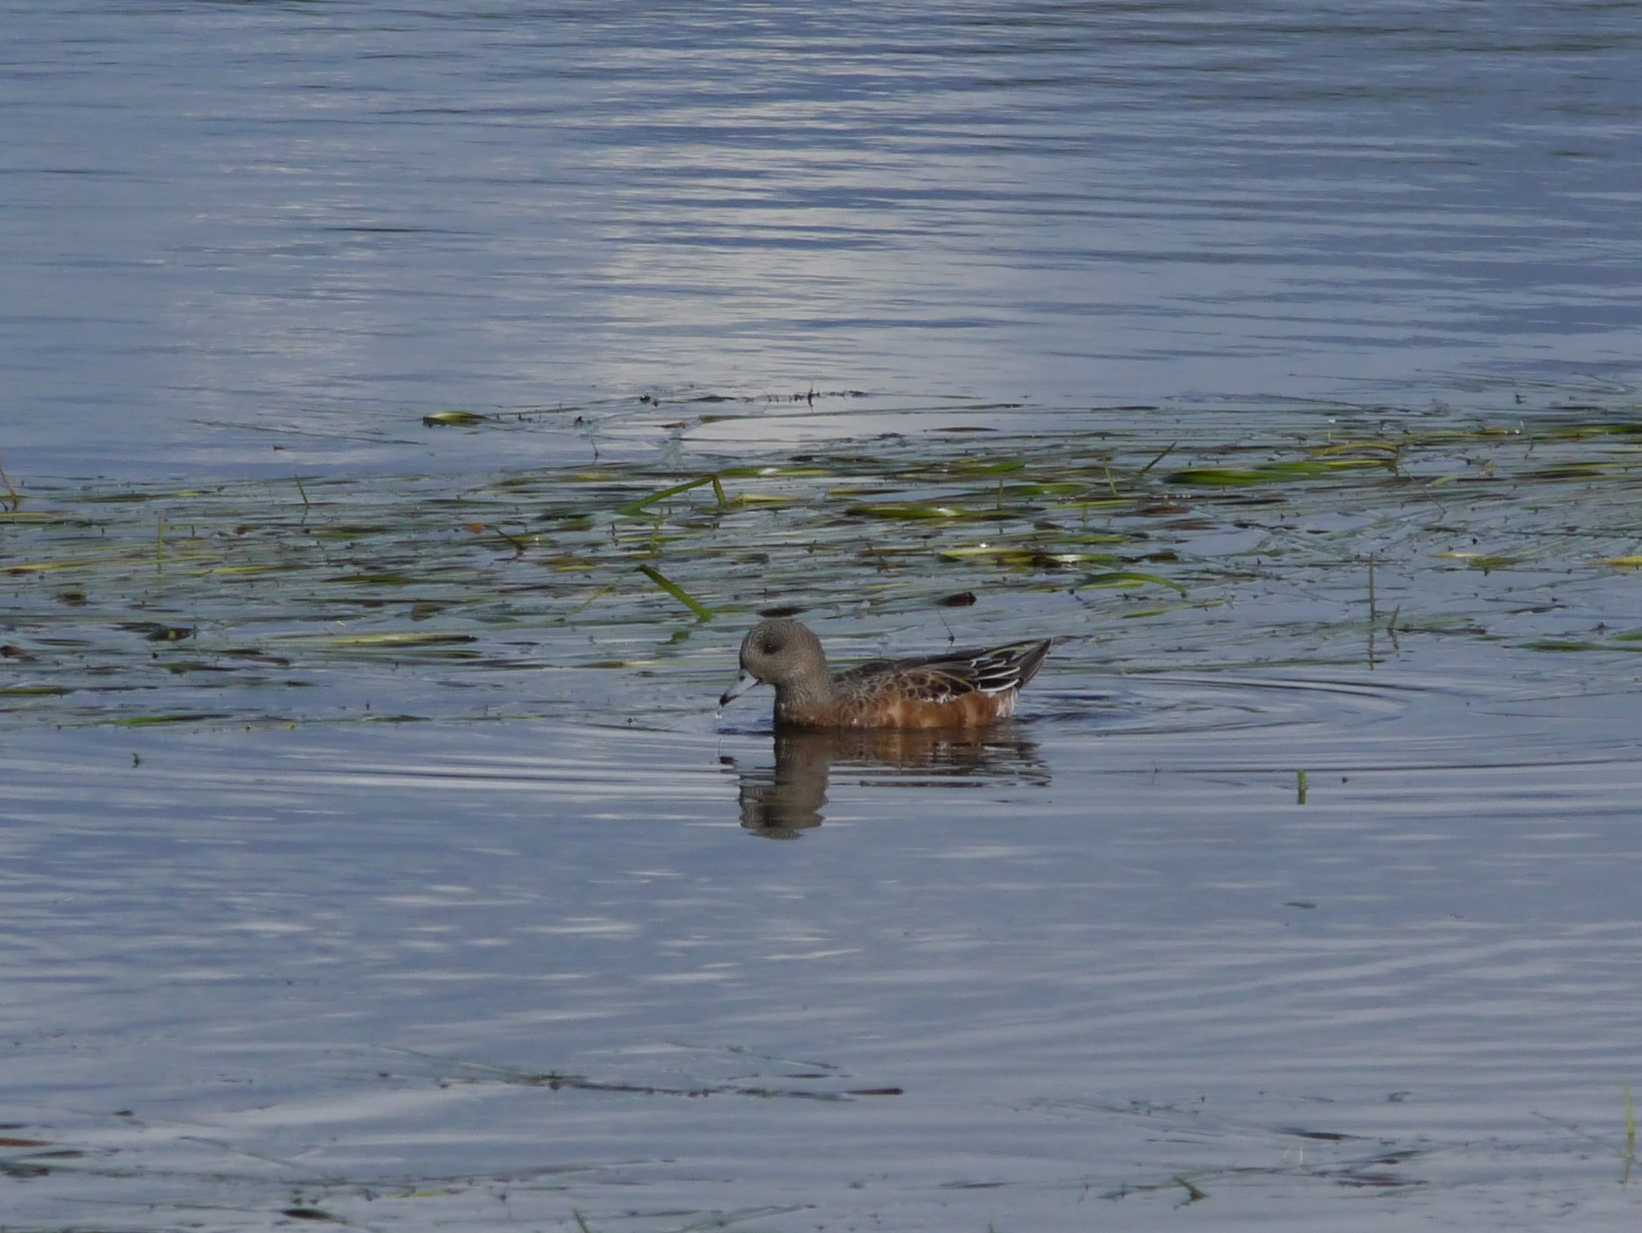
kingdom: Animalia
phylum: Chordata
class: Aves
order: Anseriformes
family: Anatidae
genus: Mareca
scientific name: Mareca americana
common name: American wigeon
